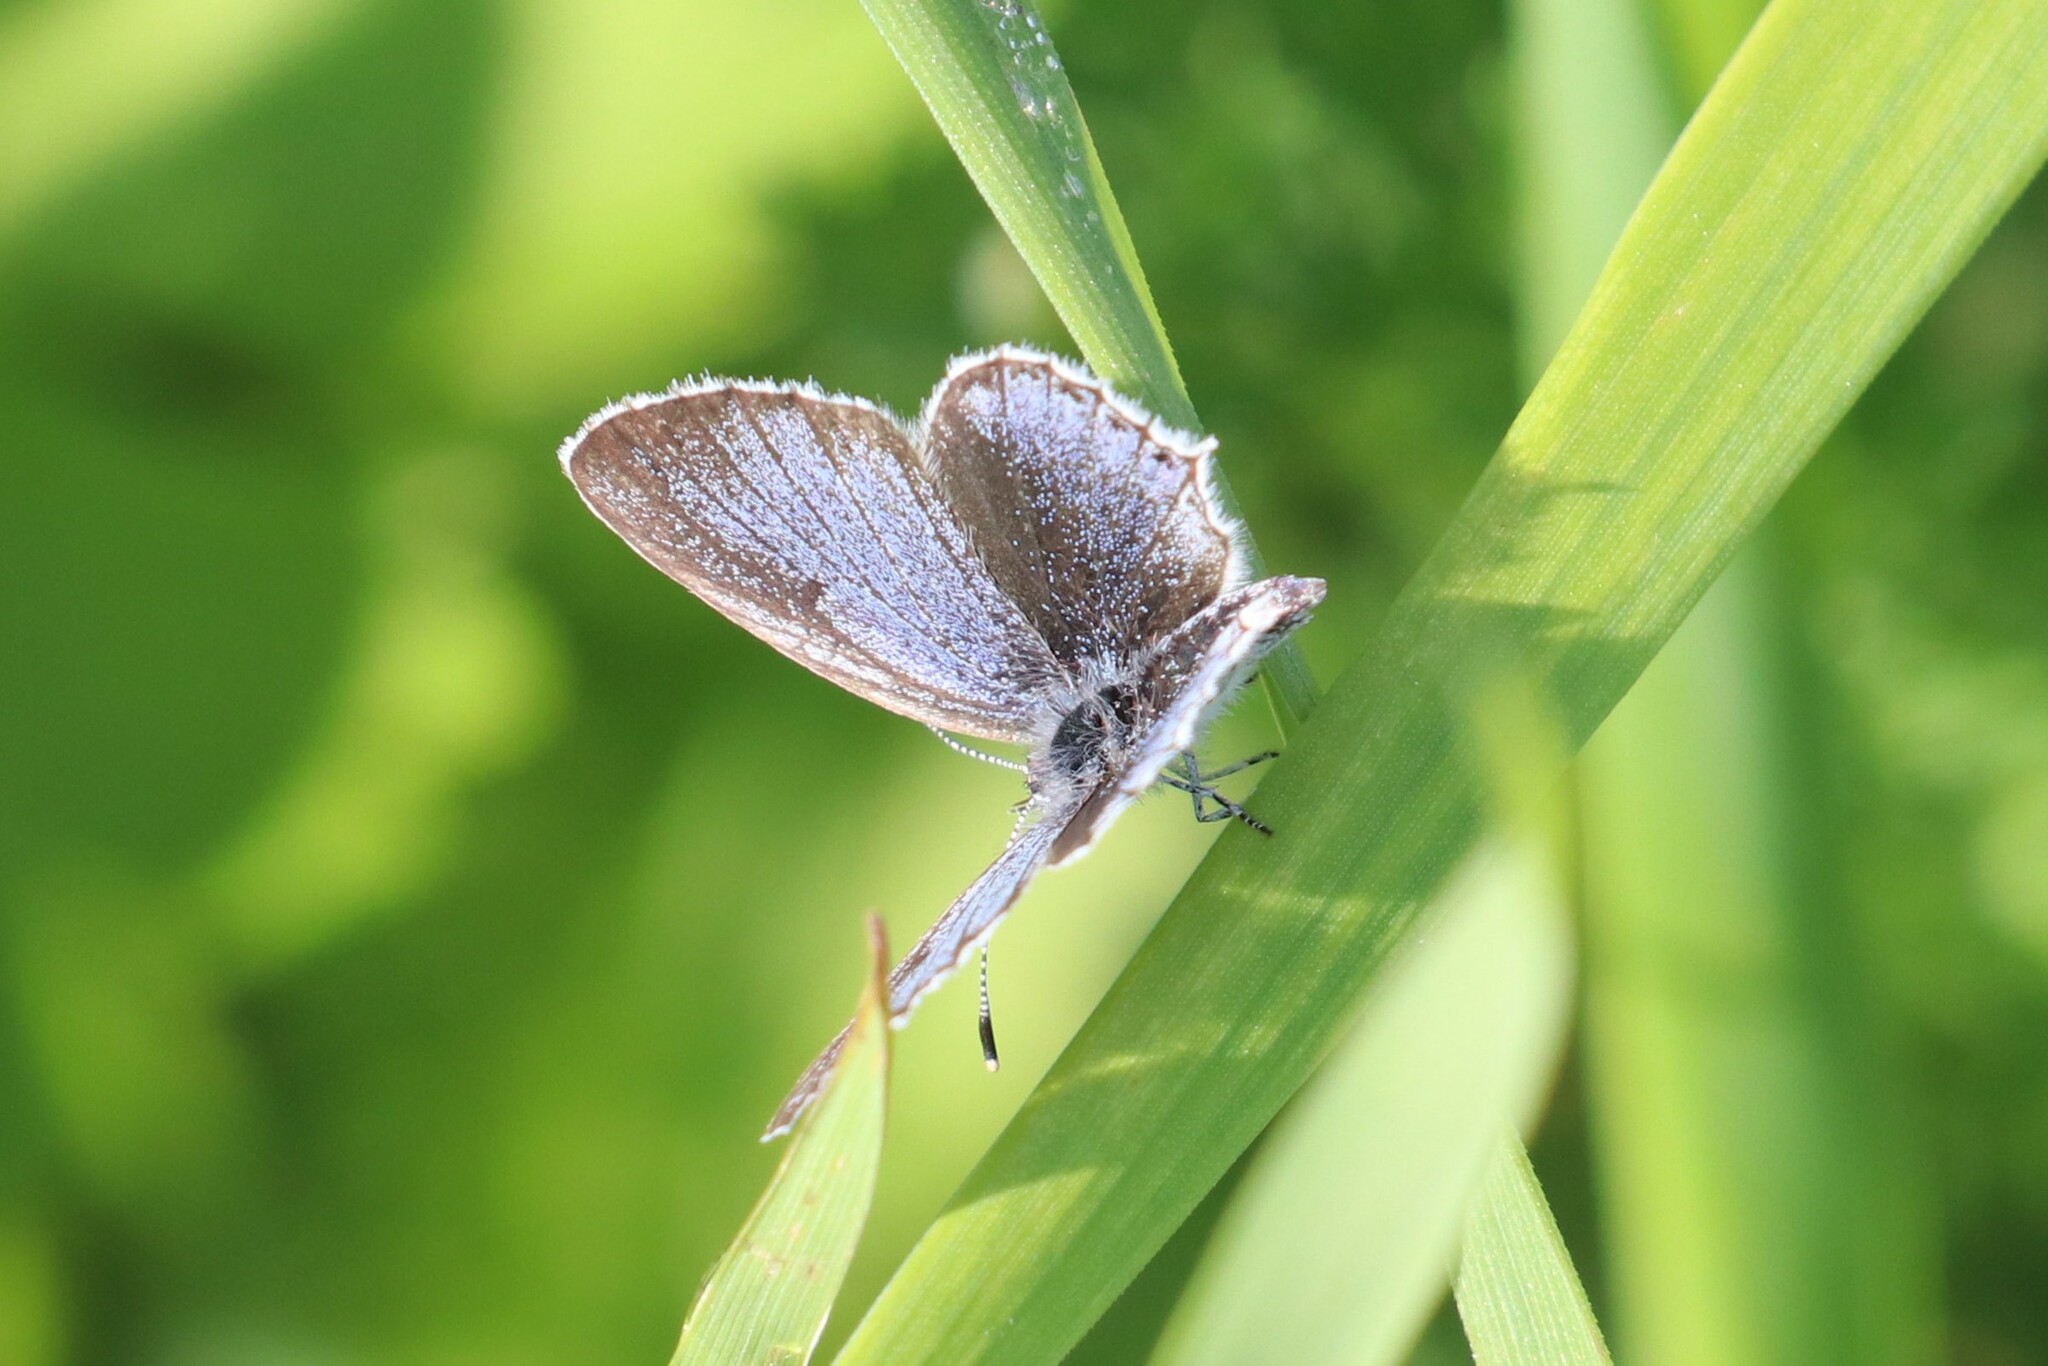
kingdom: Animalia
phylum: Arthropoda
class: Insecta
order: Lepidoptera
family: Lycaenidae
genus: Elkalyce
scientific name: Elkalyce argiades
